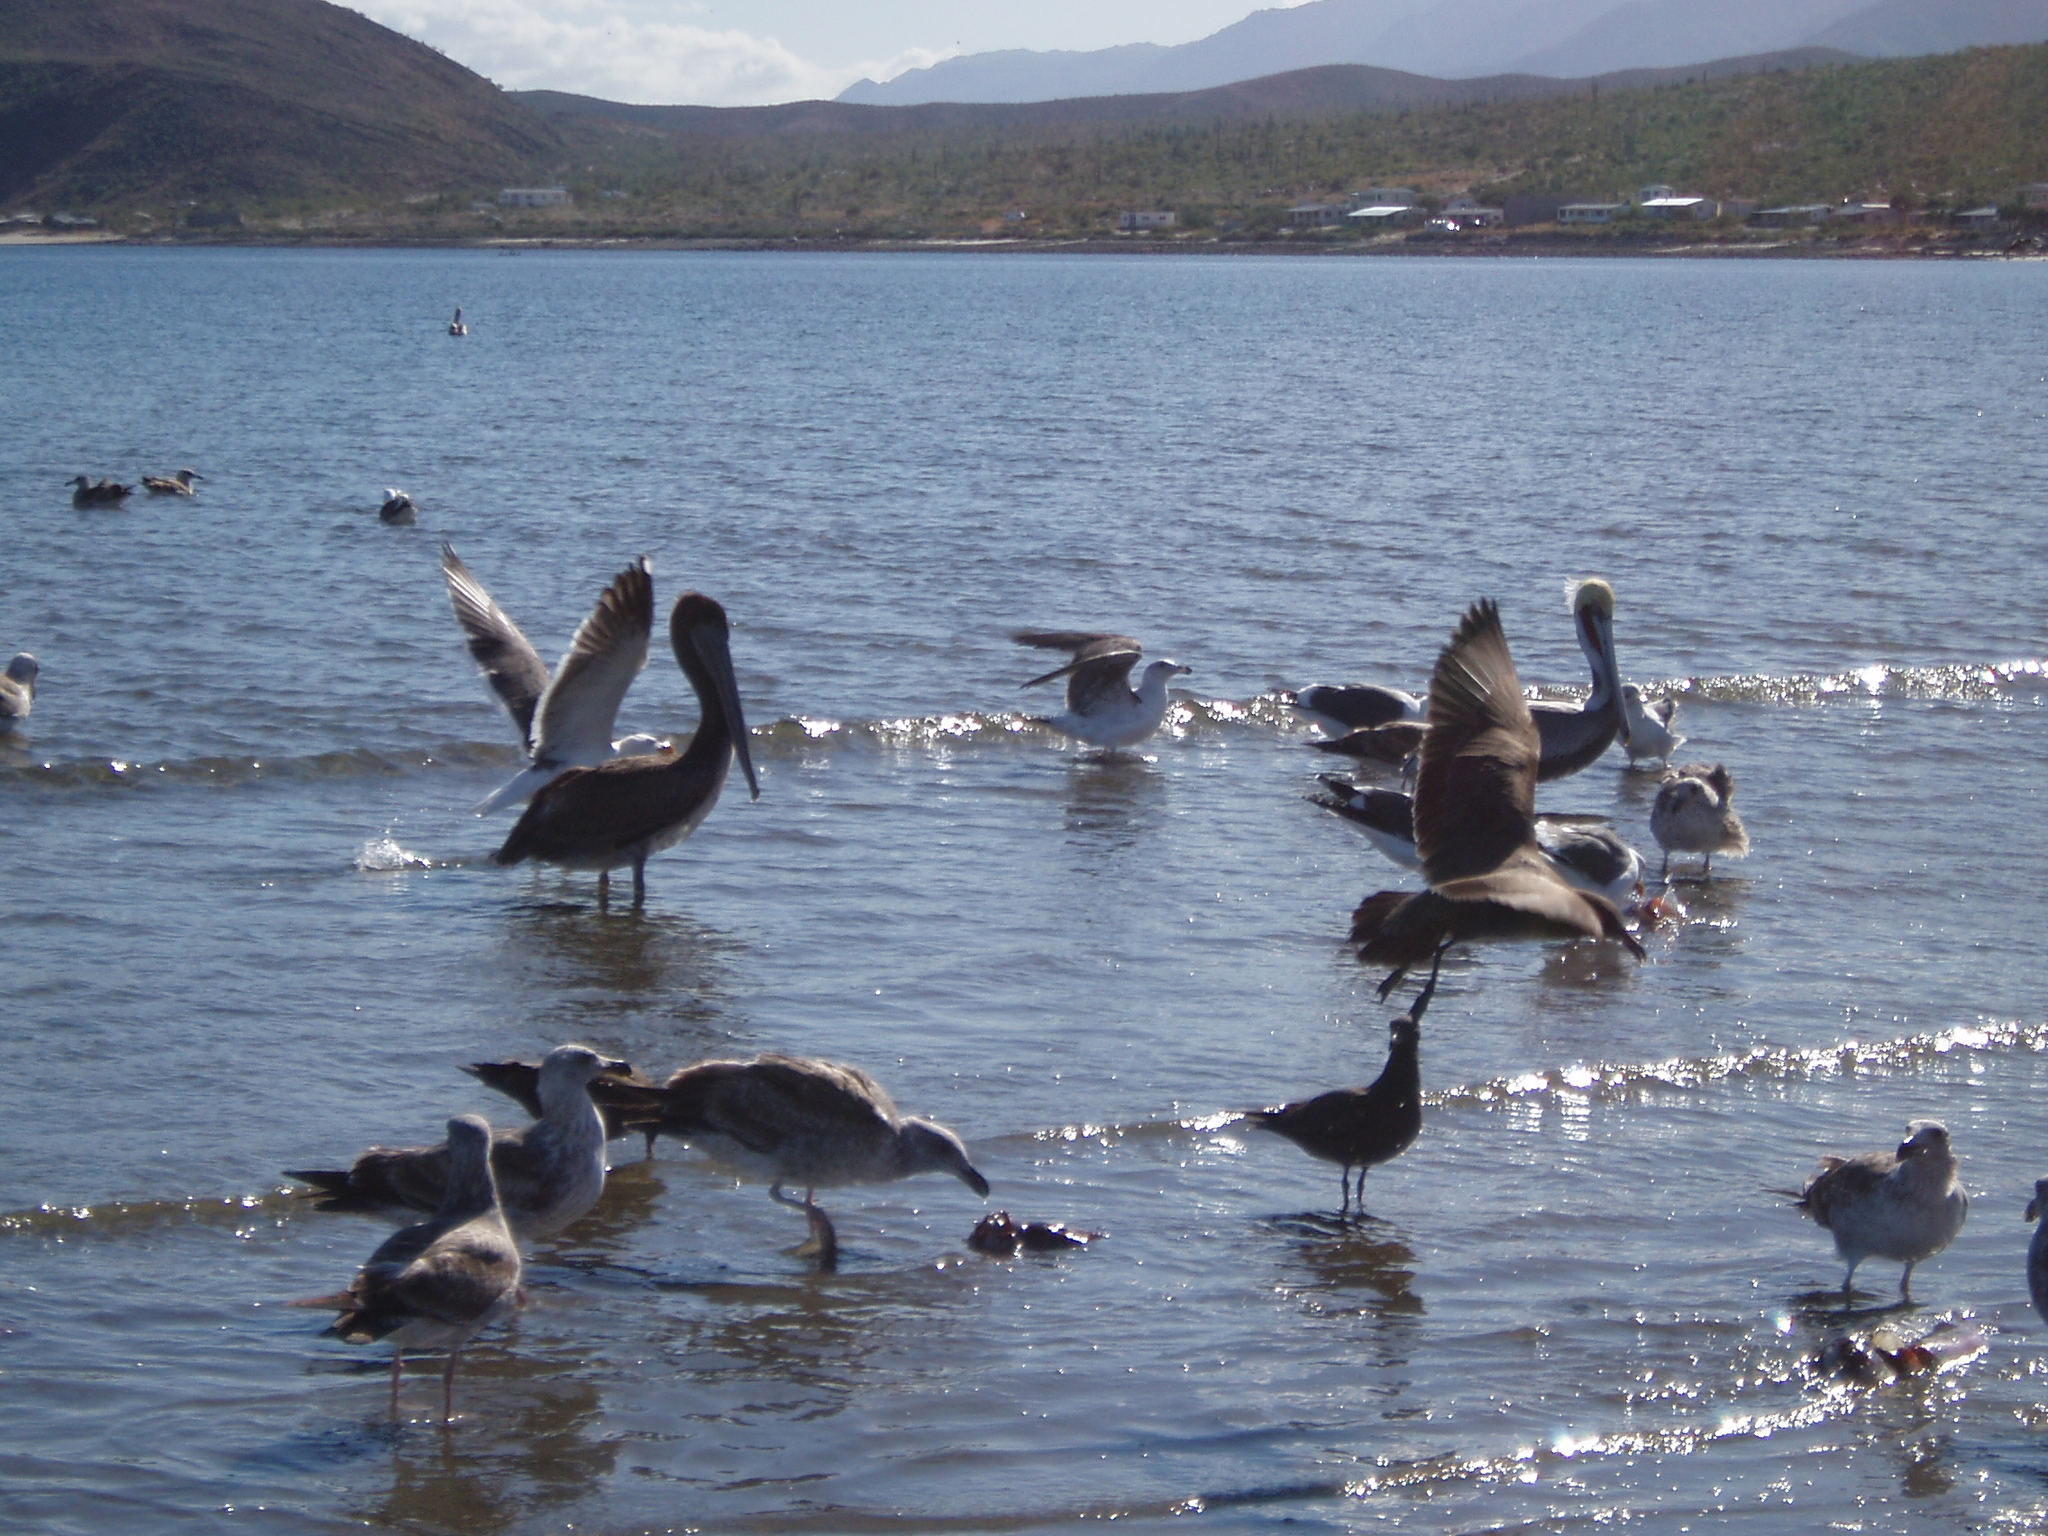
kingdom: Animalia
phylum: Chordata
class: Aves
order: Pelecaniformes
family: Pelecanidae
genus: Pelecanus
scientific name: Pelecanus occidentalis
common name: Brown pelican
